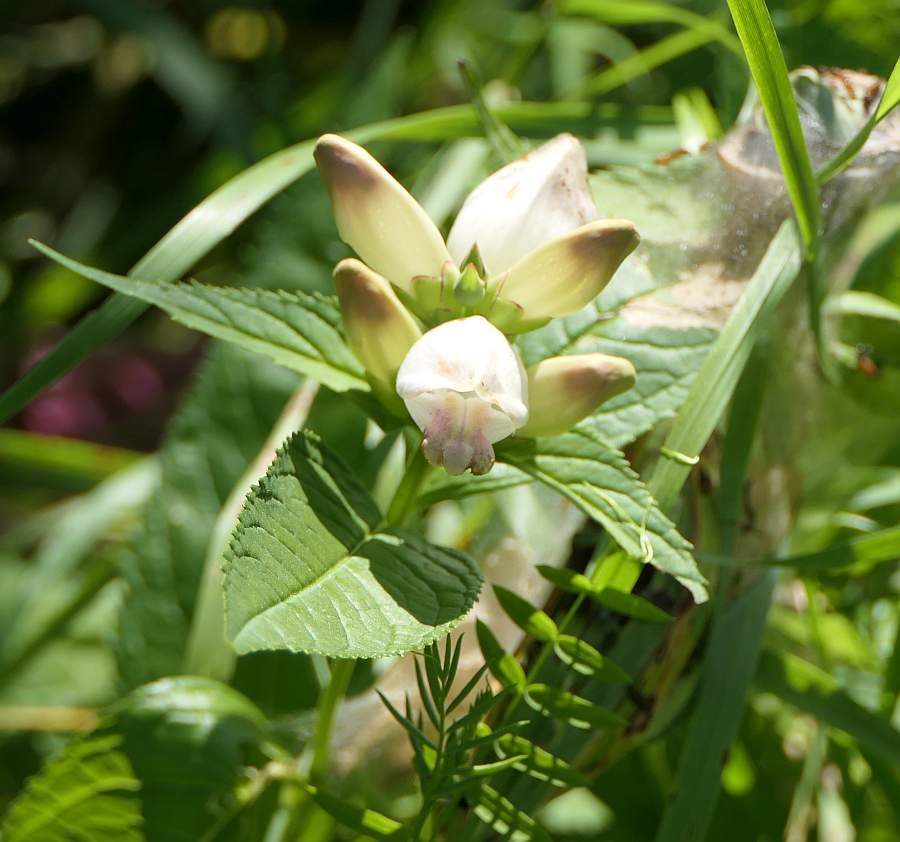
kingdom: Plantae
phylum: Tracheophyta
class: Magnoliopsida
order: Lamiales
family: Plantaginaceae
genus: Chelone
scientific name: Chelone glabra
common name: Snakehead
